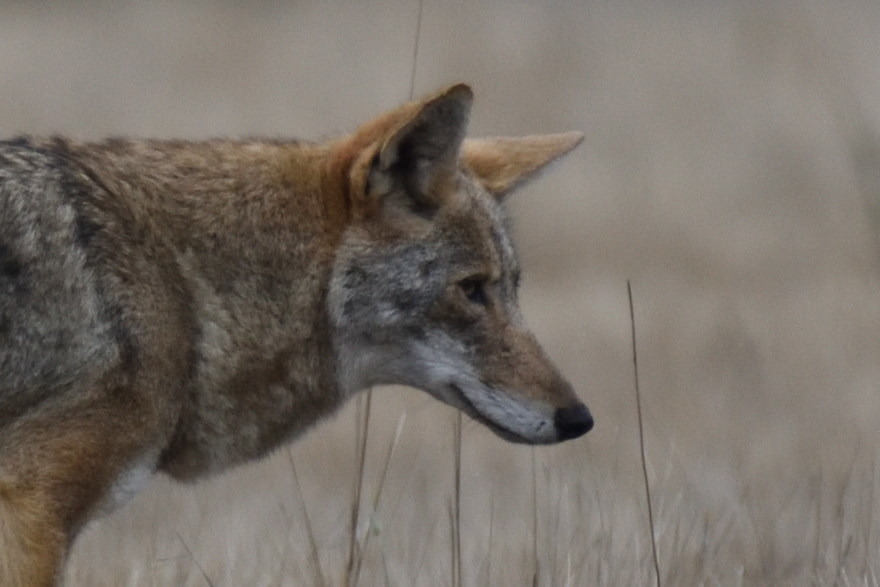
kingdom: Animalia
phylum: Chordata
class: Mammalia
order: Carnivora
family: Canidae
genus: Canis
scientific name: Canis latrans
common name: Coyote
